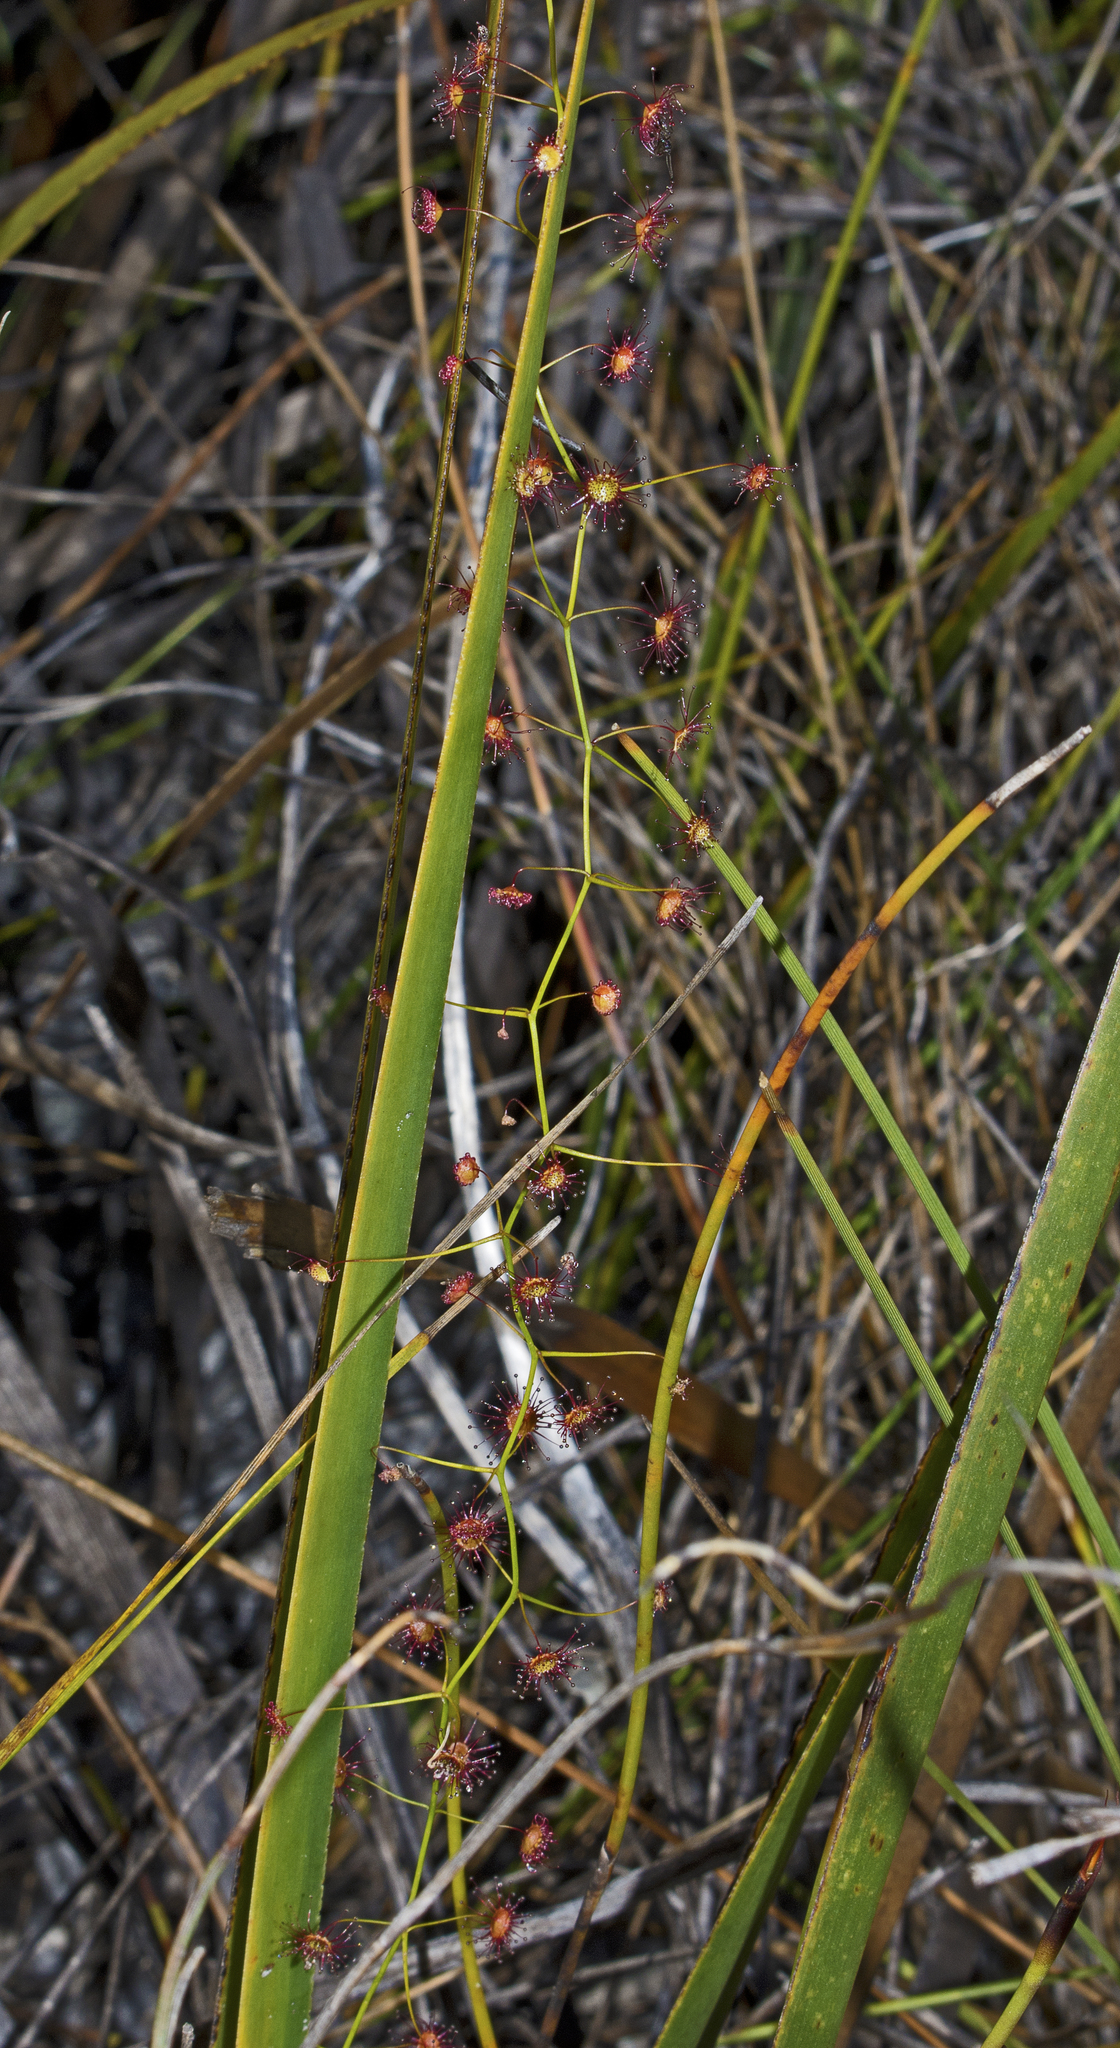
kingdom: Plantae
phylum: Tracheophyta
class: Magnoliopsida
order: Caryophyllales
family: Droseraceae
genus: Drosera
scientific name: Drosera pallida
